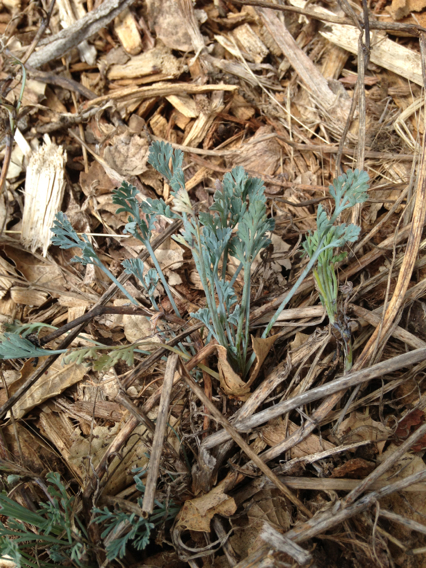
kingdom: Plantae
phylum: Tracheophyta
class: Magnoliopsida
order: Ranunculales
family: Papaveraceae
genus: Eschscholzia
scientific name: Eschscholzia californica
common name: California poppy
